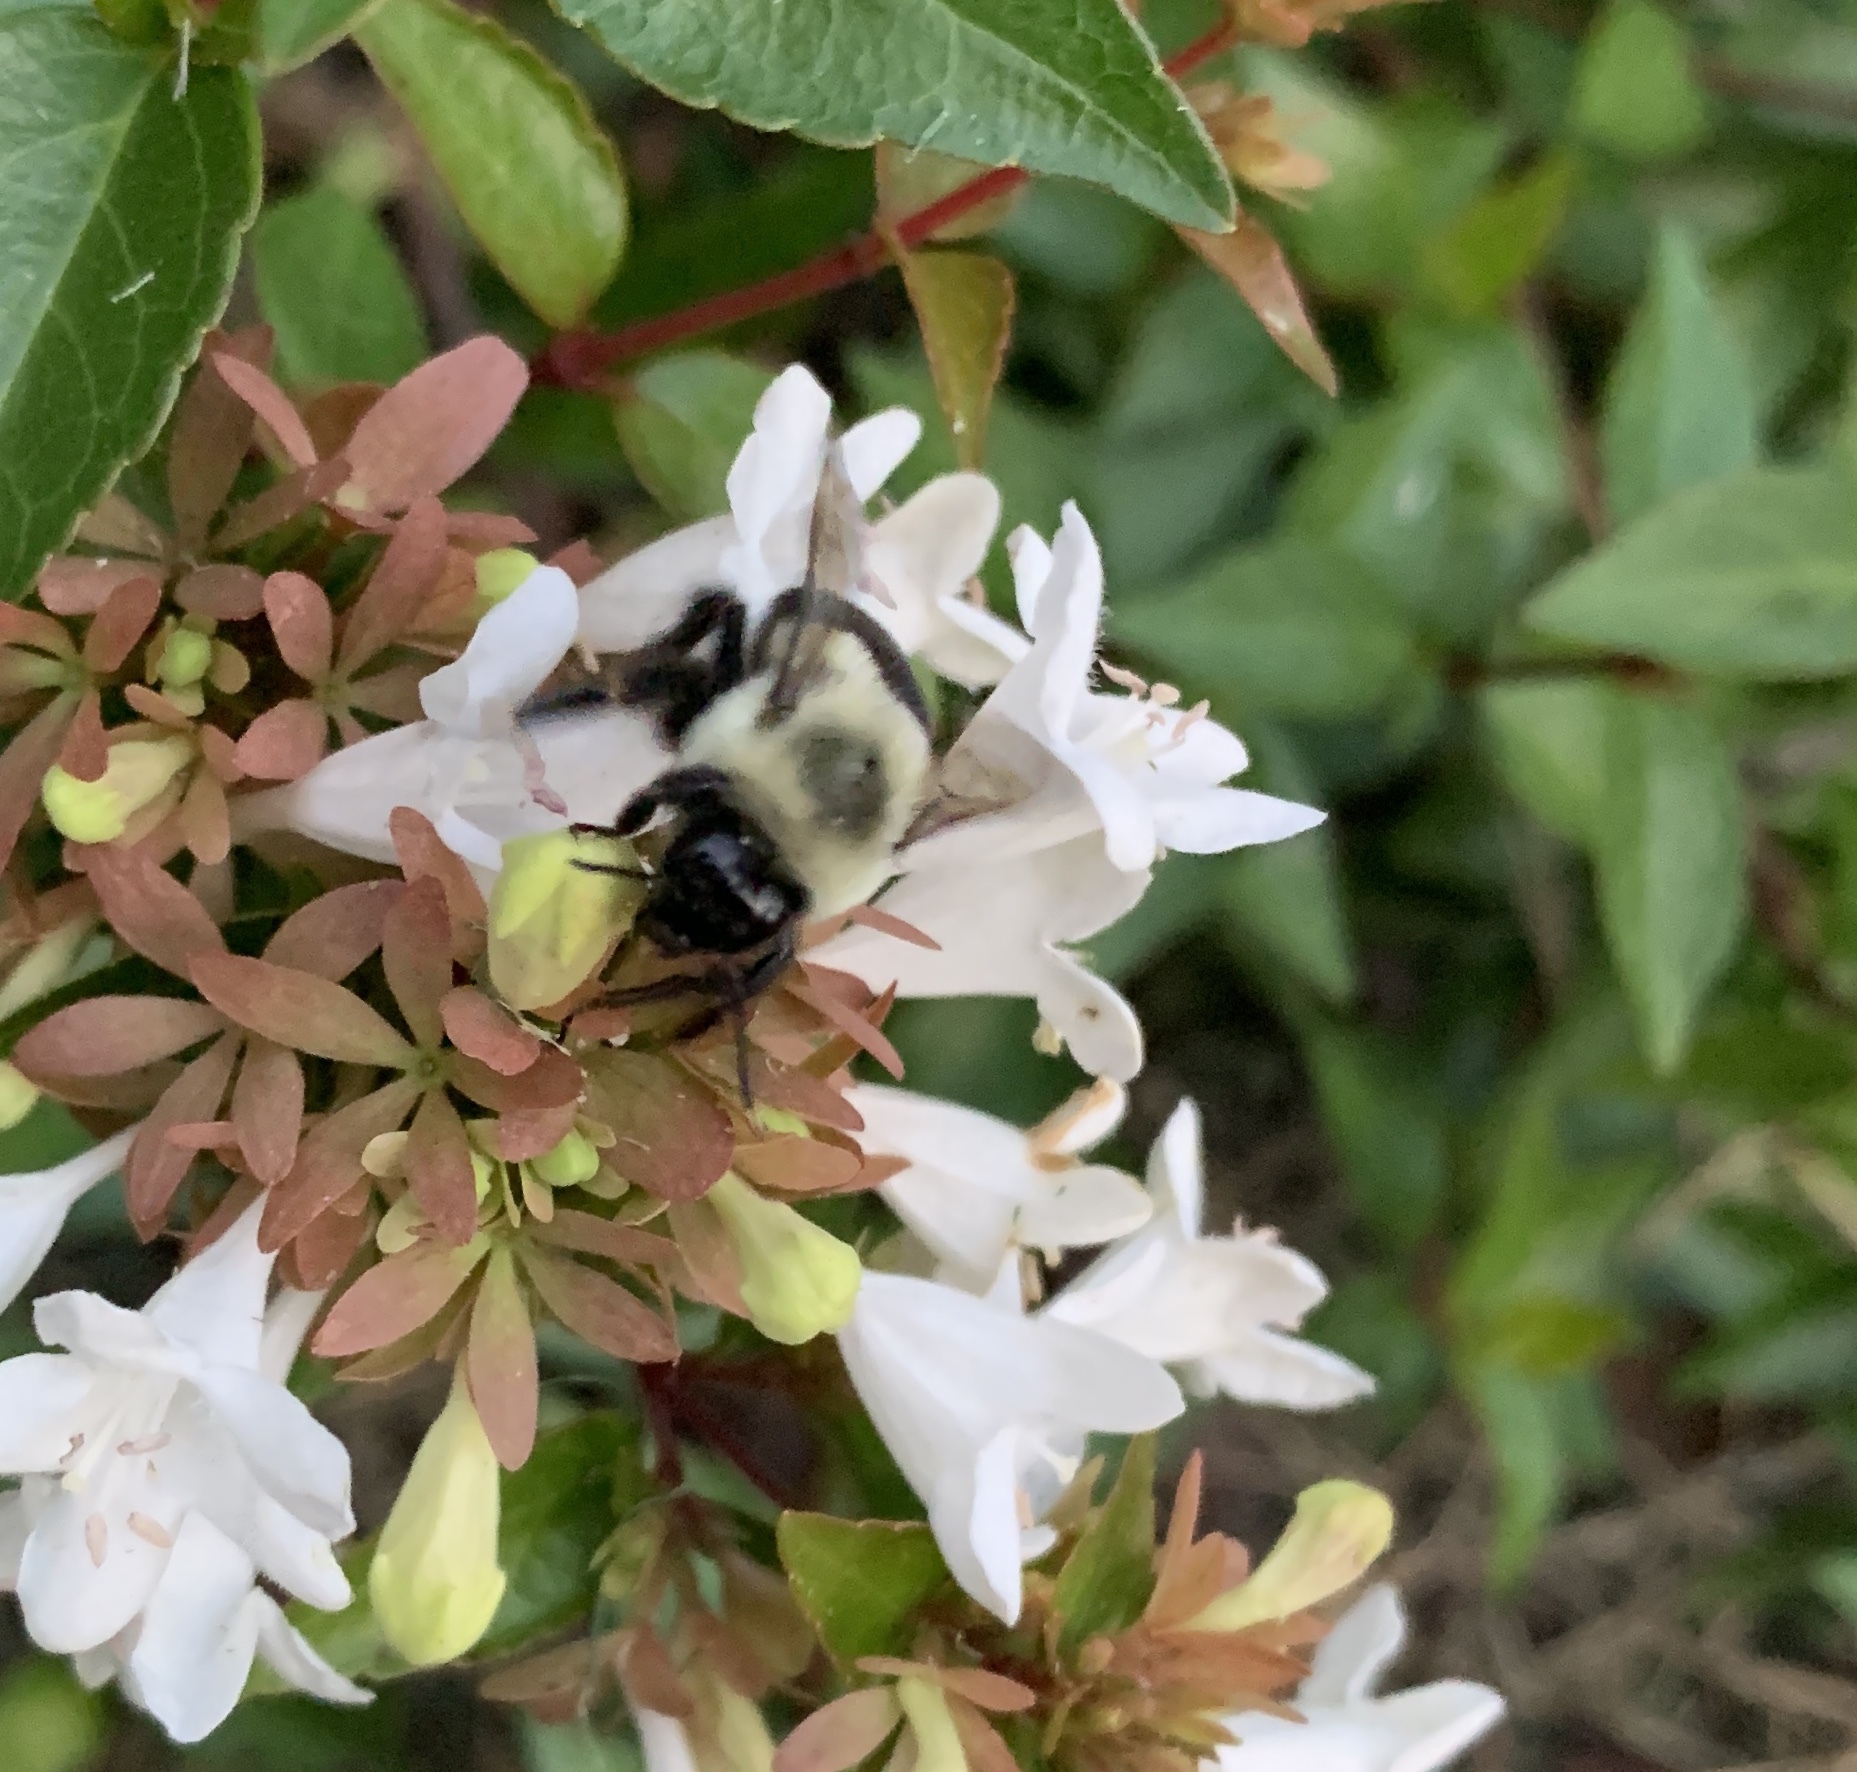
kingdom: Animalia
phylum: Arthropoda
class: Insecta
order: Hymenoptera
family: Apidae
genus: Bombus
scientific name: Bombus impatiens
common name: Common eastern bumble bee
